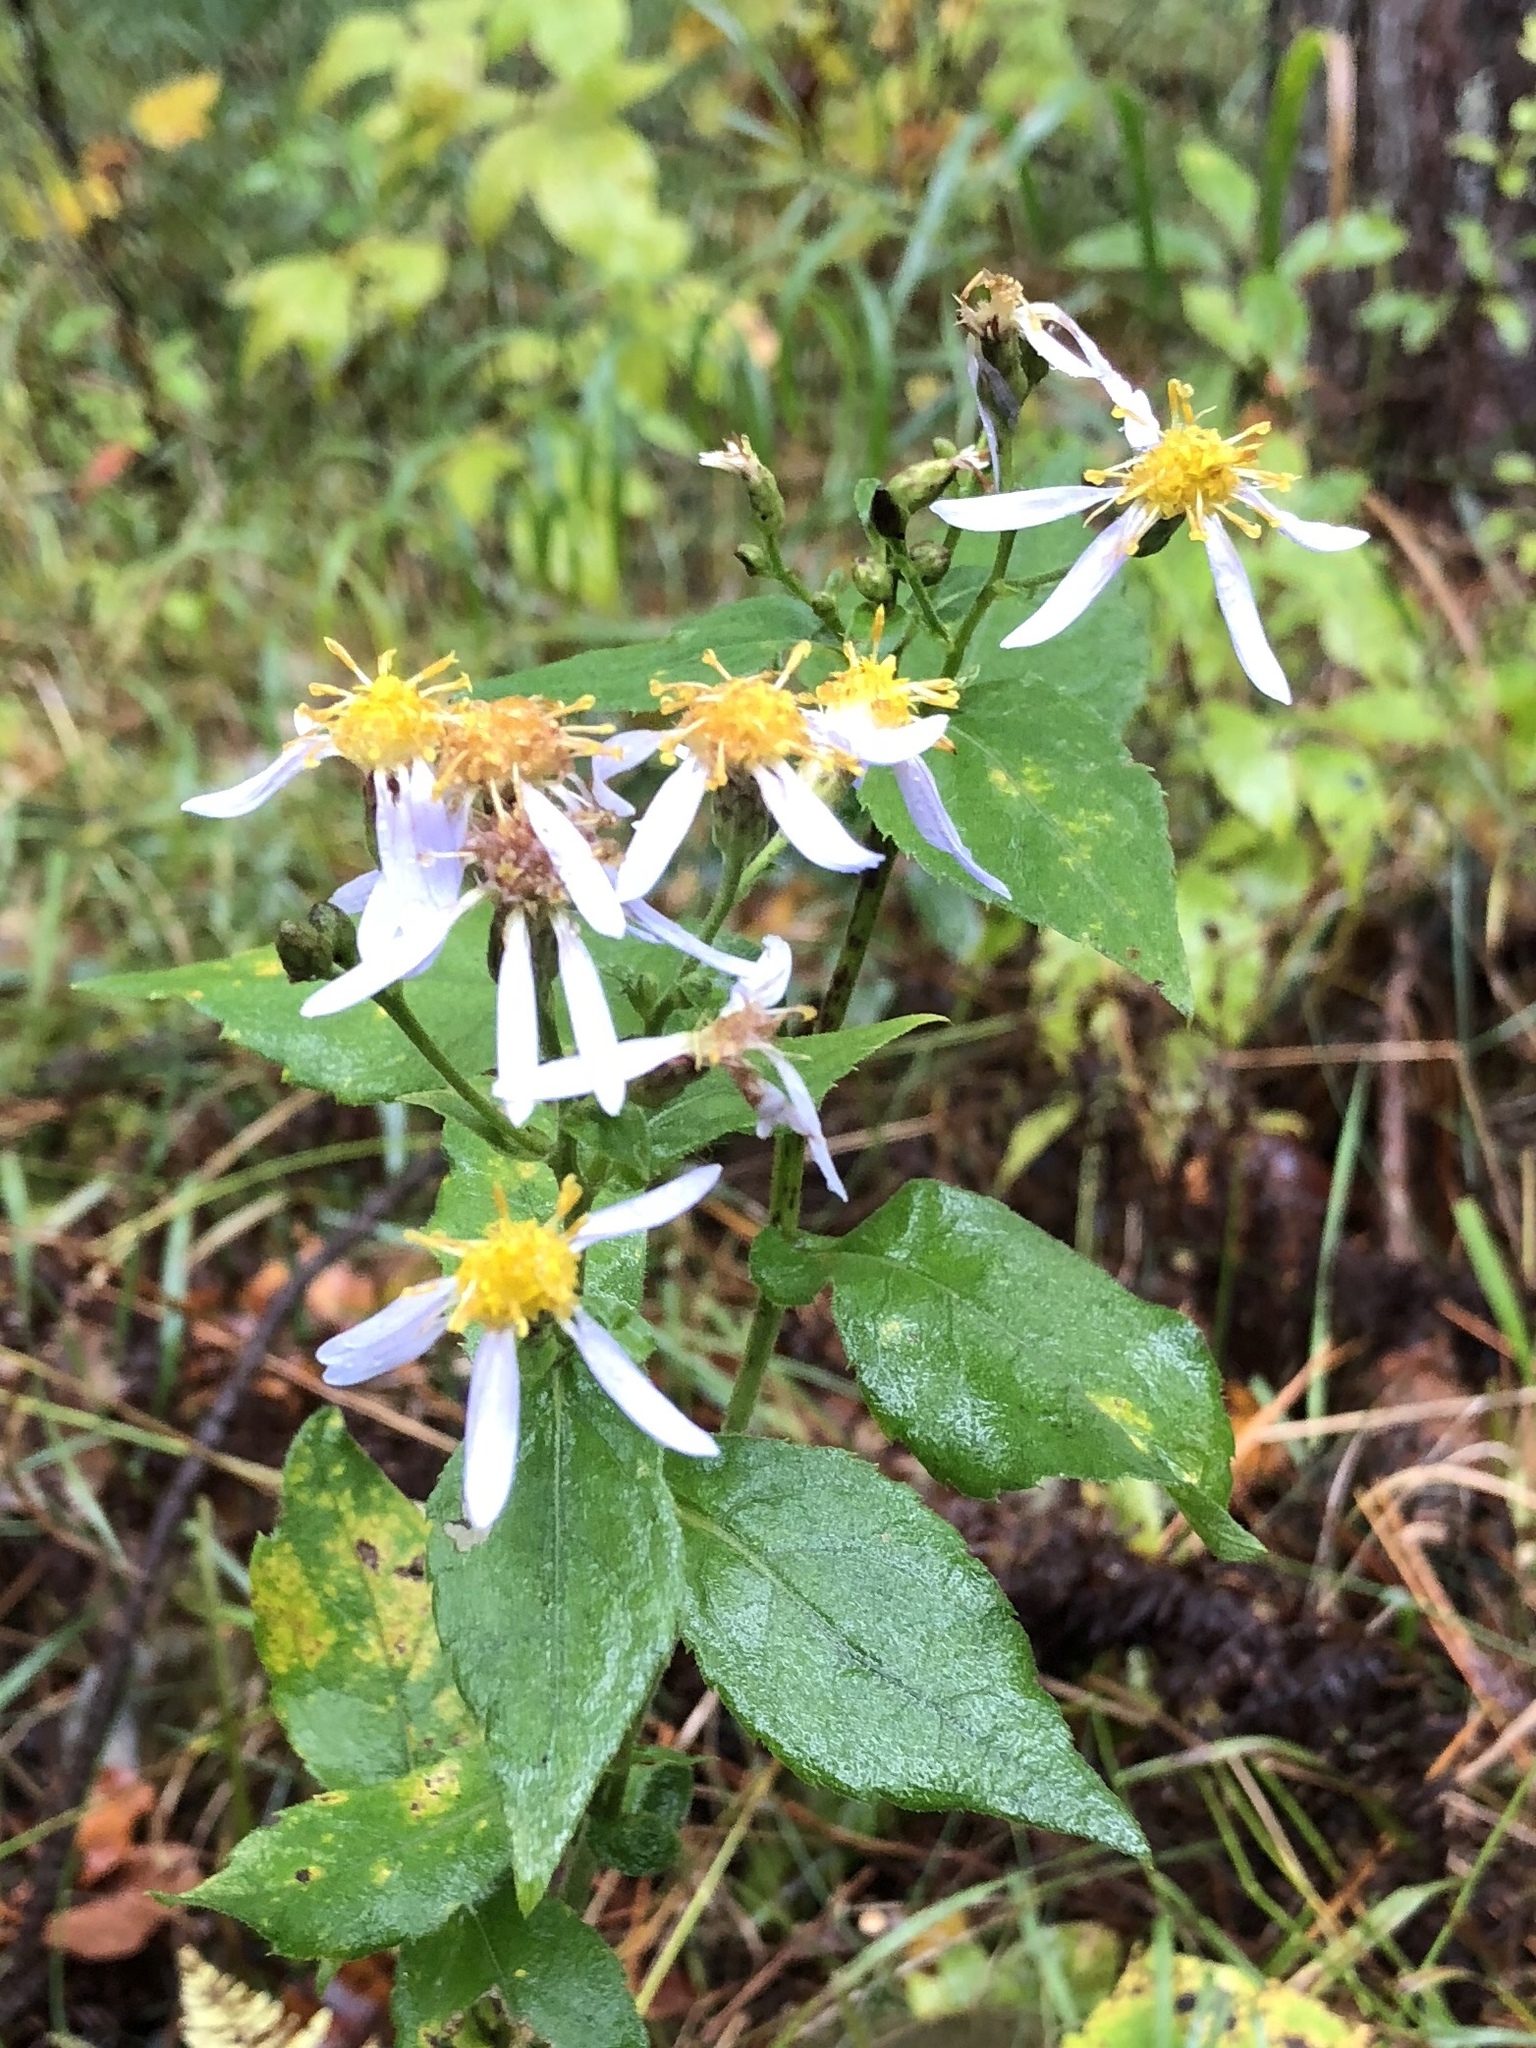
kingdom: Plantae
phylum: Tracheophyta
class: Magnoliopsida
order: Asterales
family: Asteraceae
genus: Eurybia
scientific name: Eurybia macrophylla
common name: Big-leaved aster
